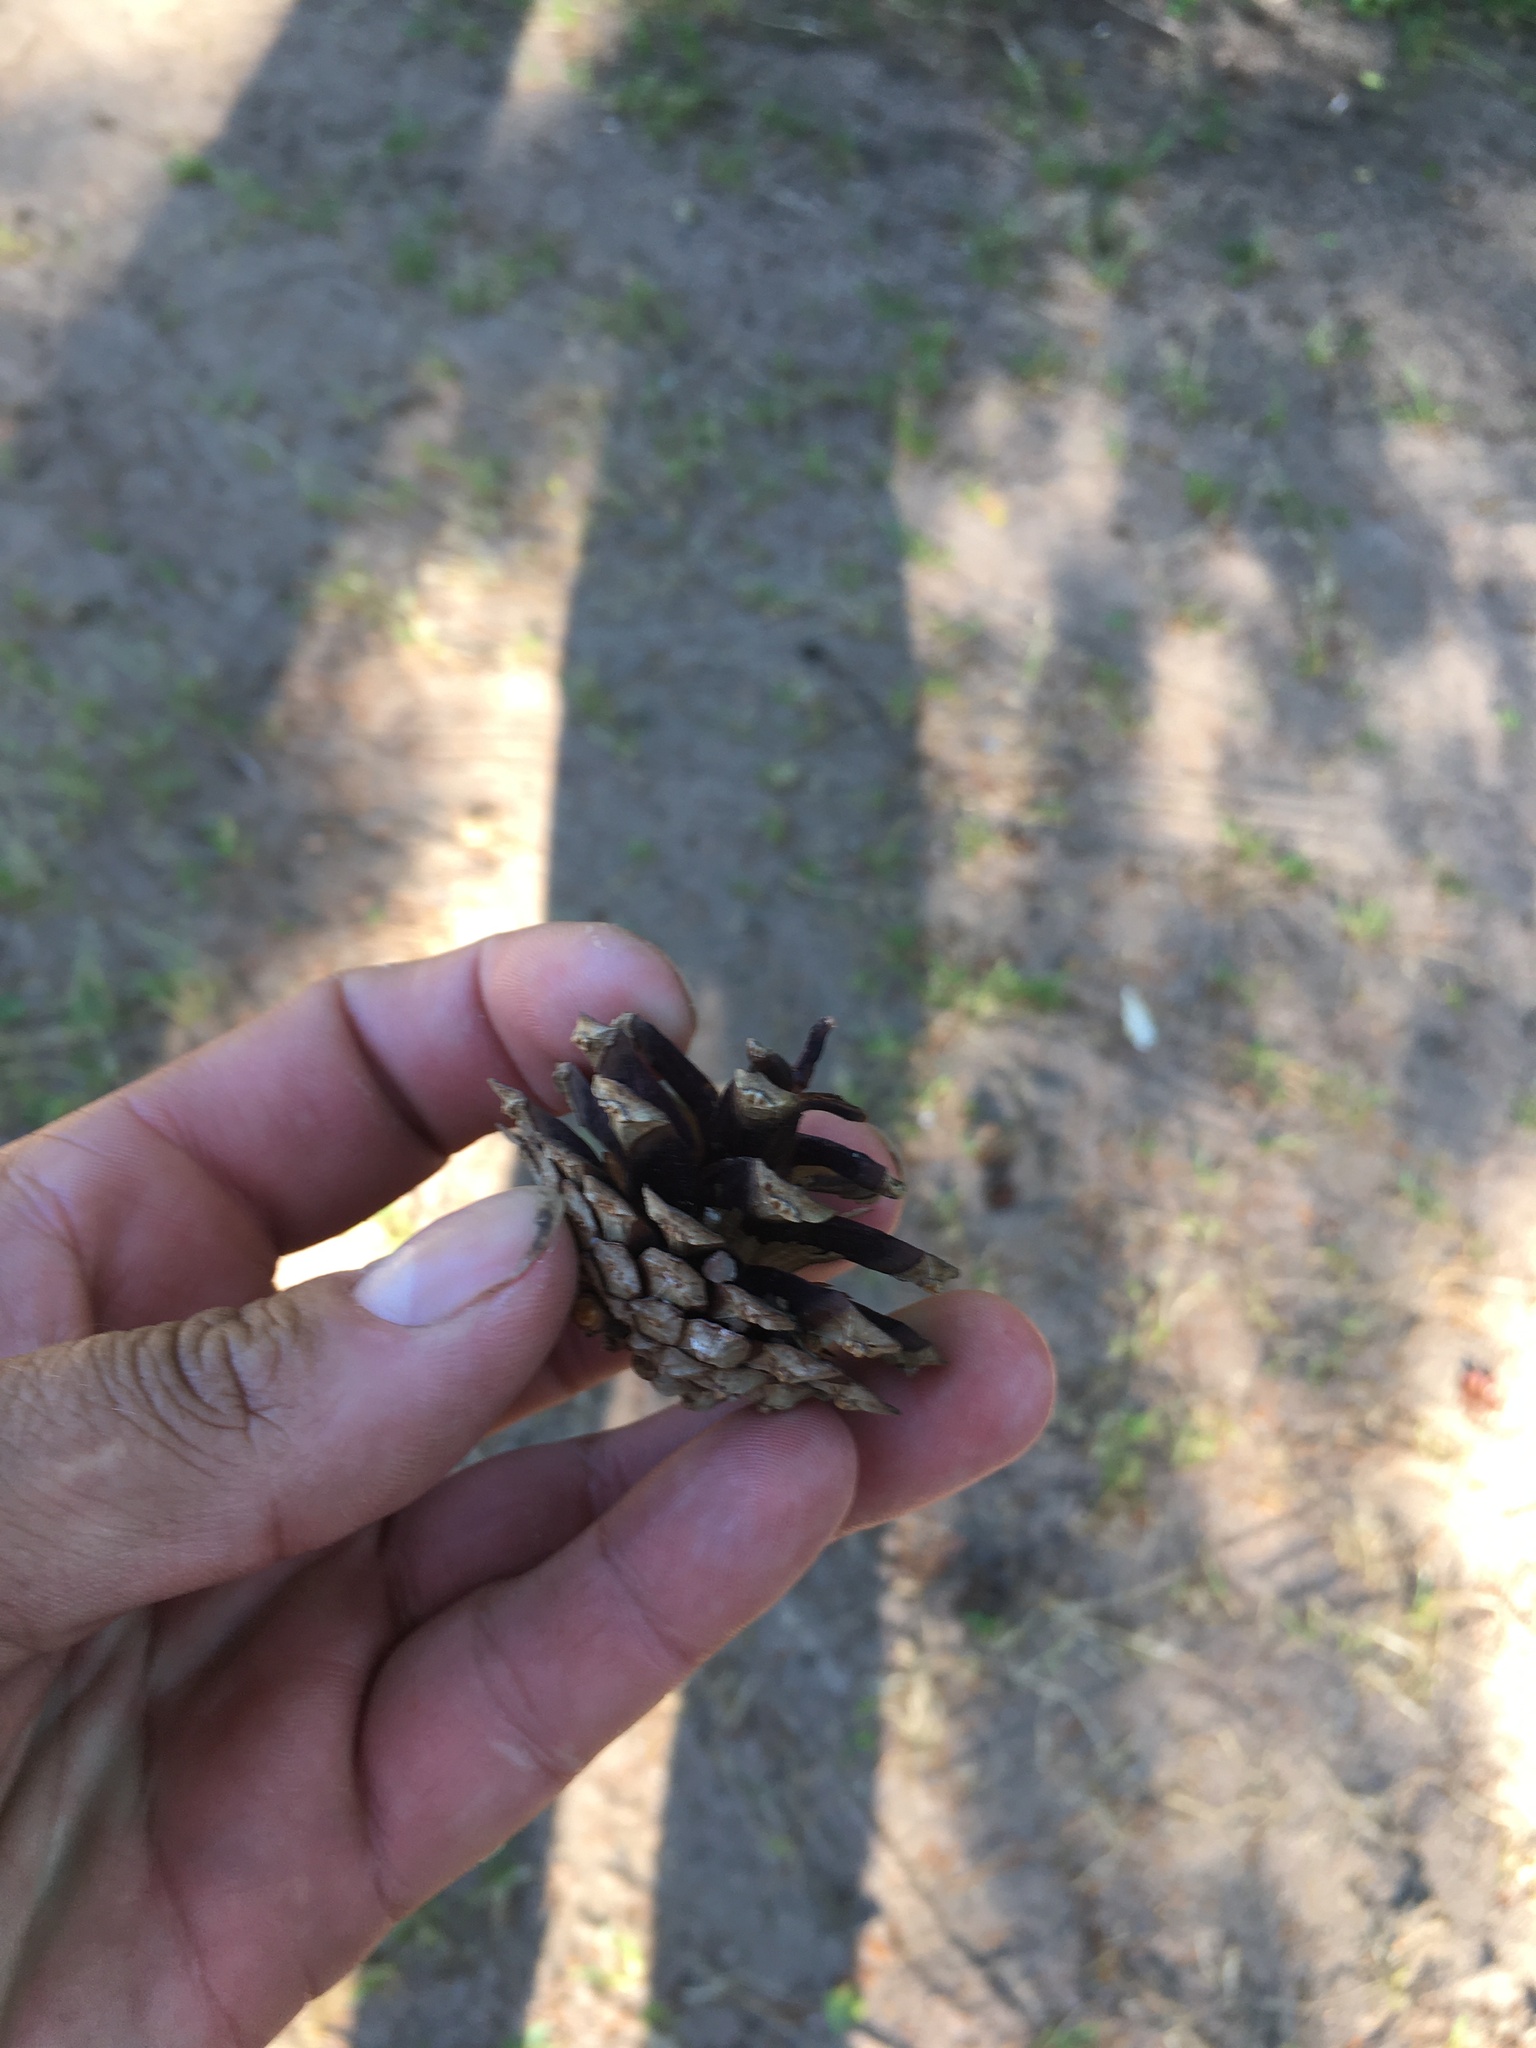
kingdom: Plantae
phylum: Tracheophyta
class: Pinopsida
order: Pinales
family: Pinaceae
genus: Pinus
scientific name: Pinus sylvestris
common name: Scots pine
